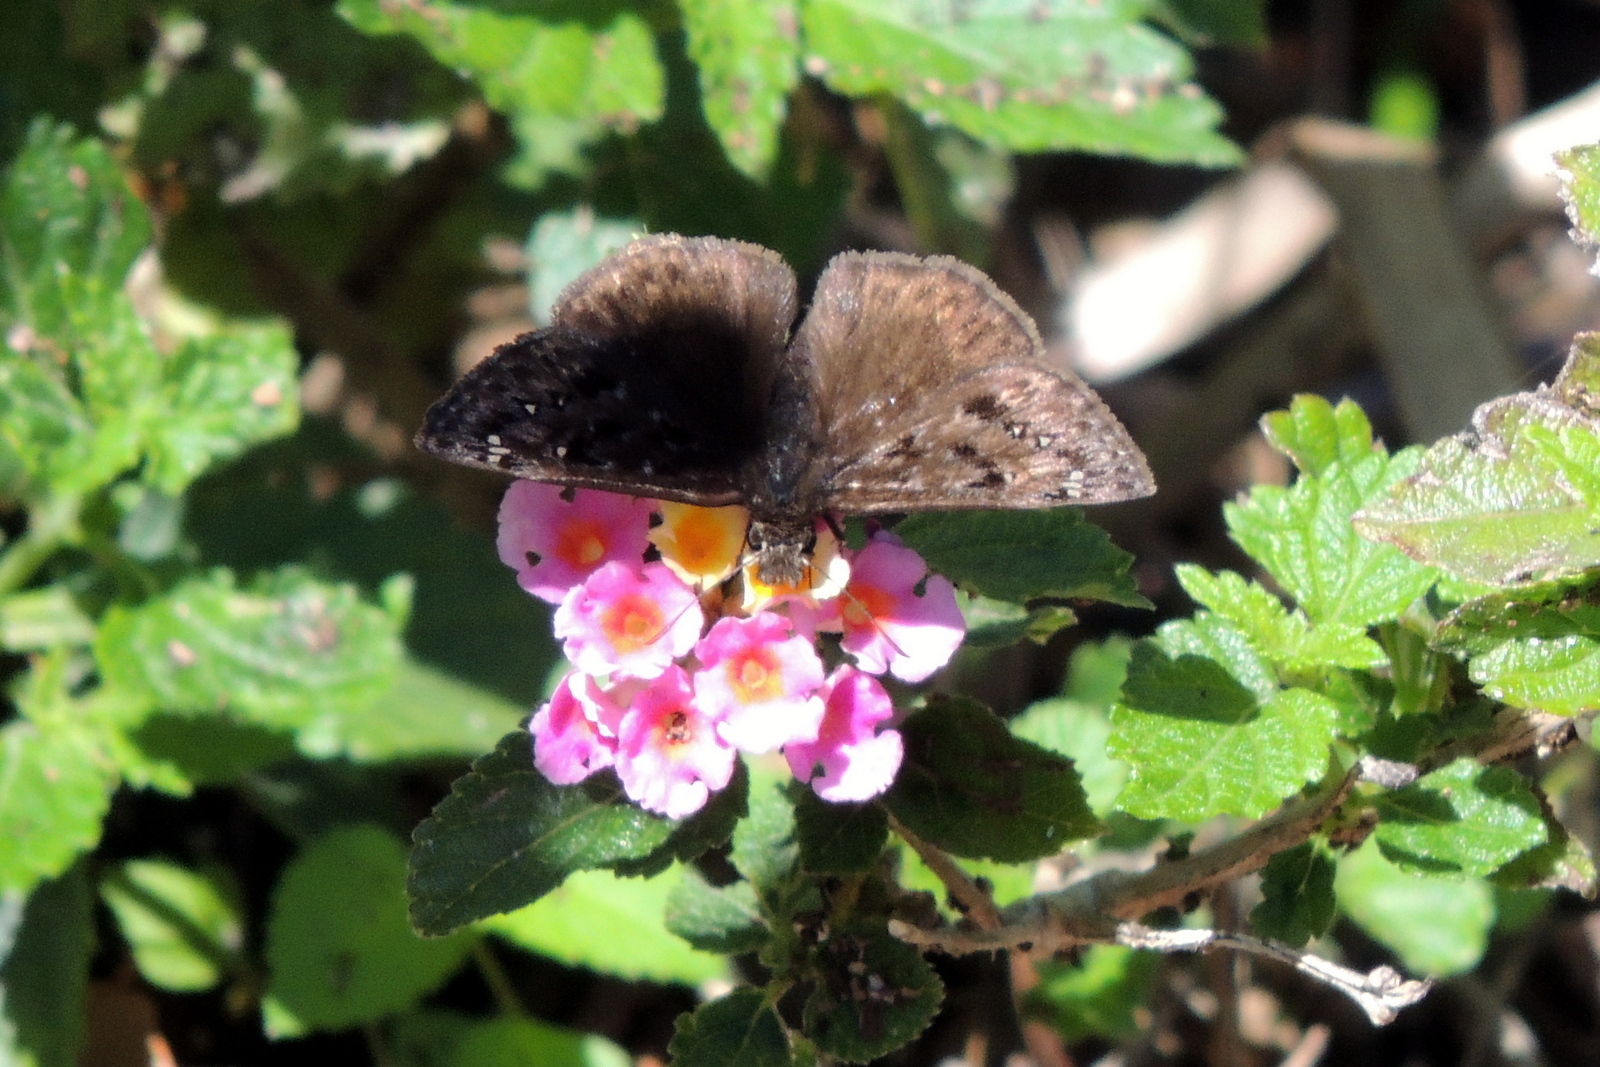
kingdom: Animalia
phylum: Arthropoda
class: Insecta
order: Lepidoptera
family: Hesperiidae
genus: Erynnis
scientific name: Erynnis horatius
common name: Horace's duskywing
